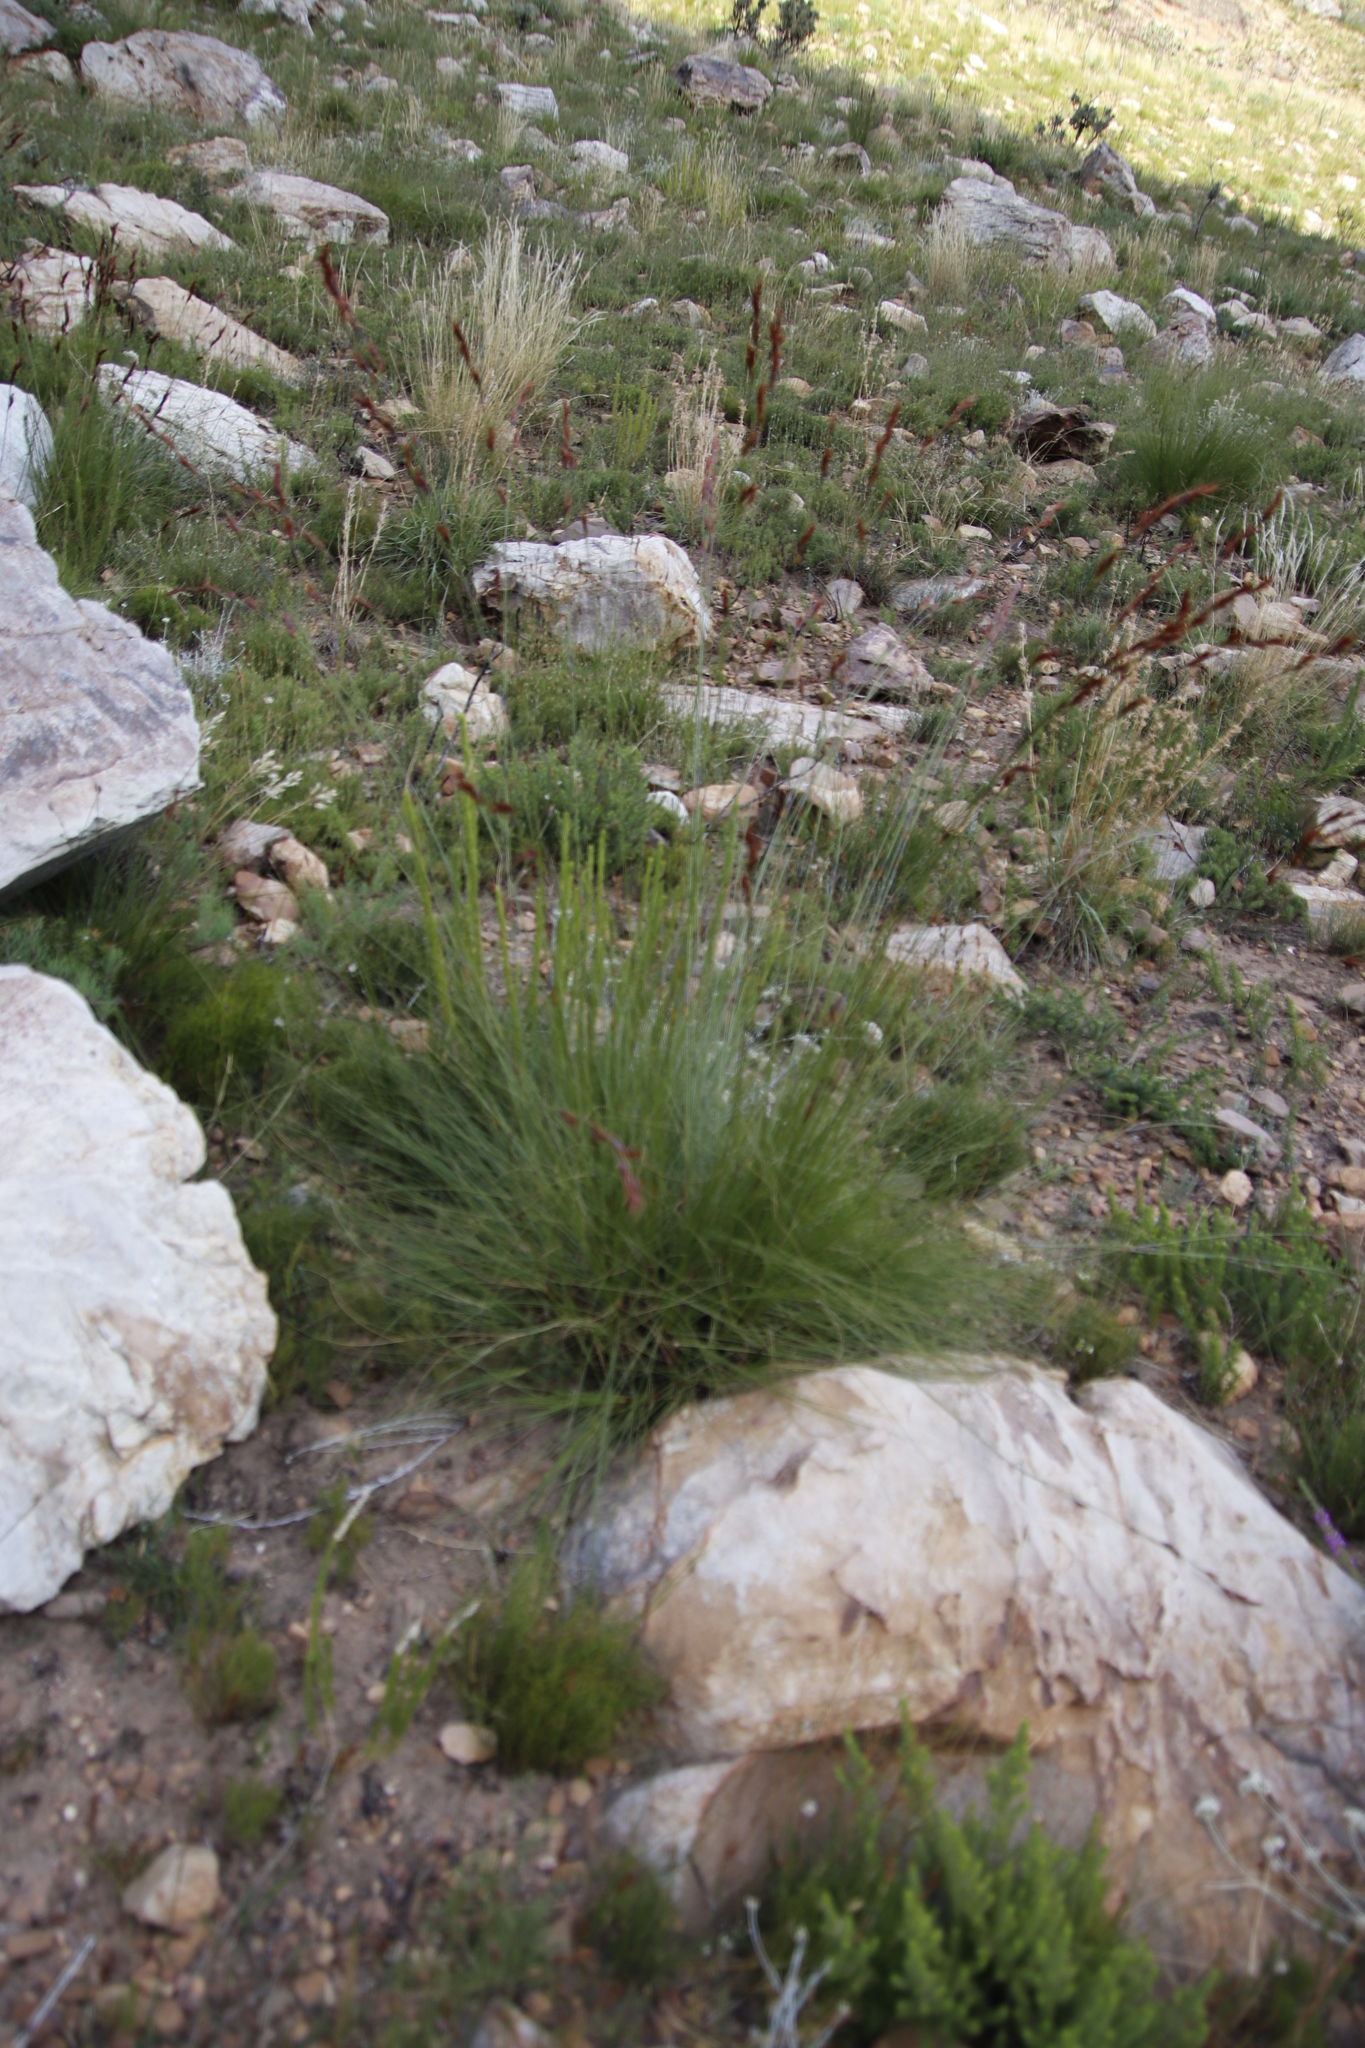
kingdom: Plantae
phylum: Tracheophyta
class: Liliopsida
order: Poales
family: Cyperaceae
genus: Tetraria
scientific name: Tetraria ustulata
